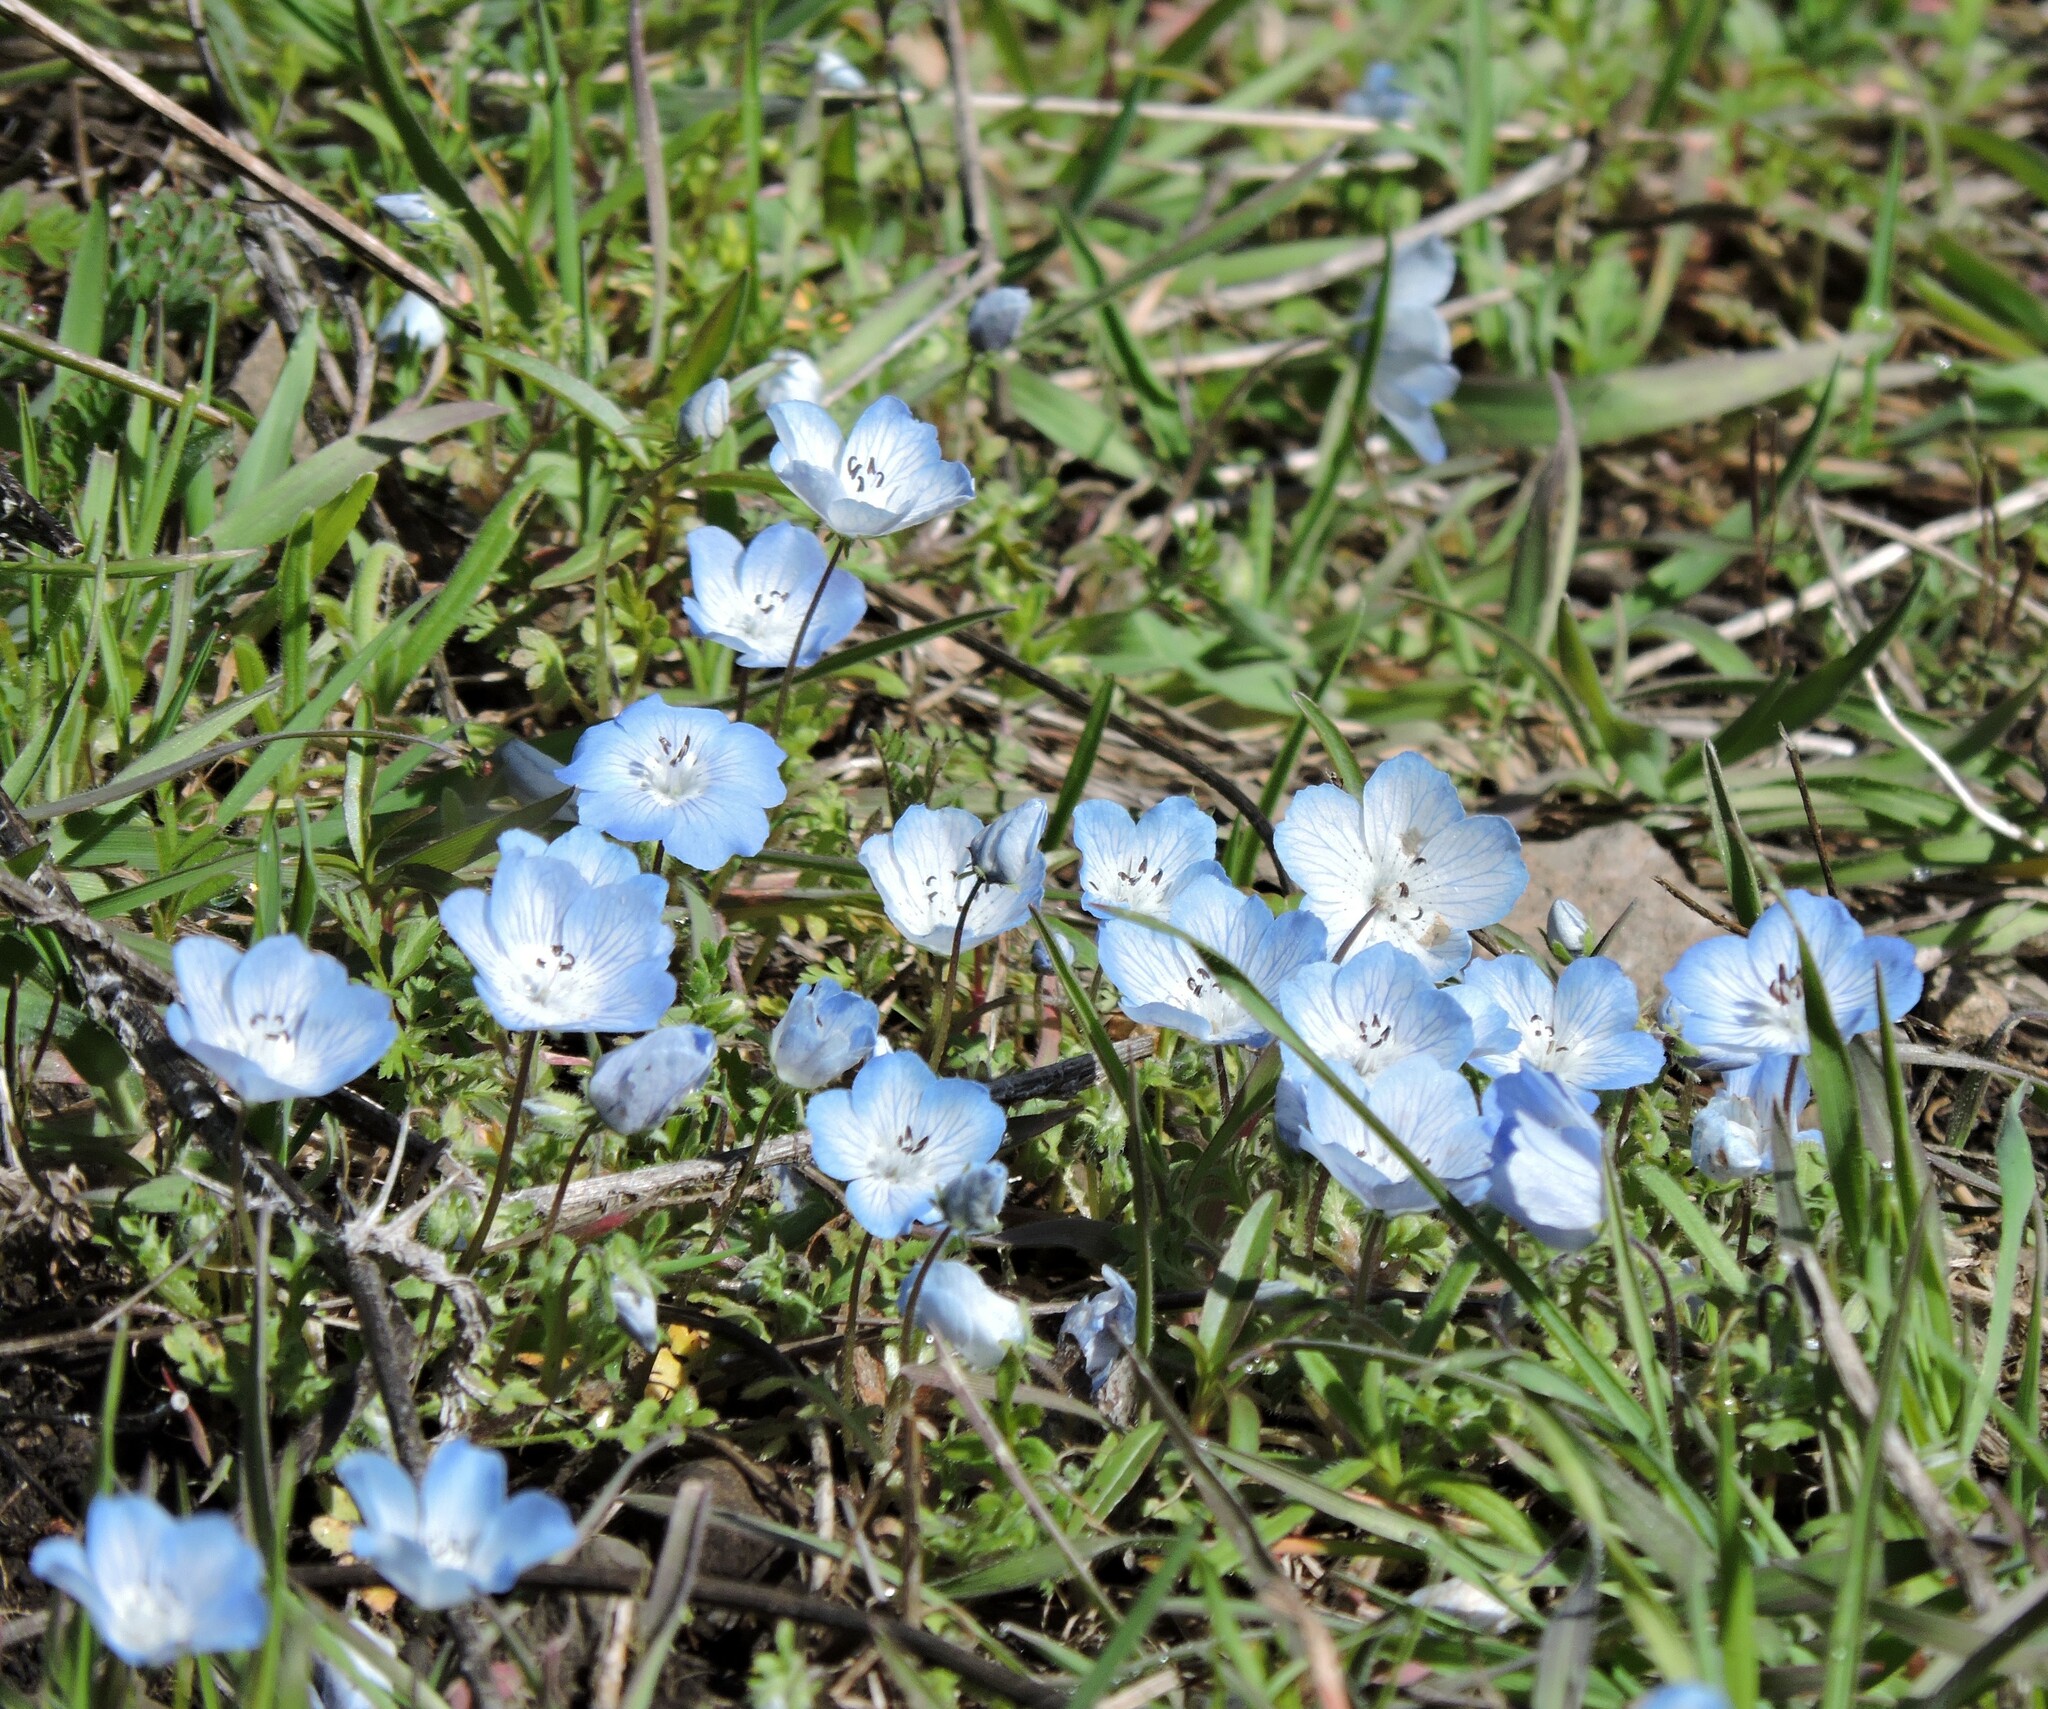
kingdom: Plantae
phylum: Tracheophyta
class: Magnoliopsida
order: Boraginales
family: Hydrophyllaceae
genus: Nemophila
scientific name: Nemophila menziesii
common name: Baby's-blue-eyes
